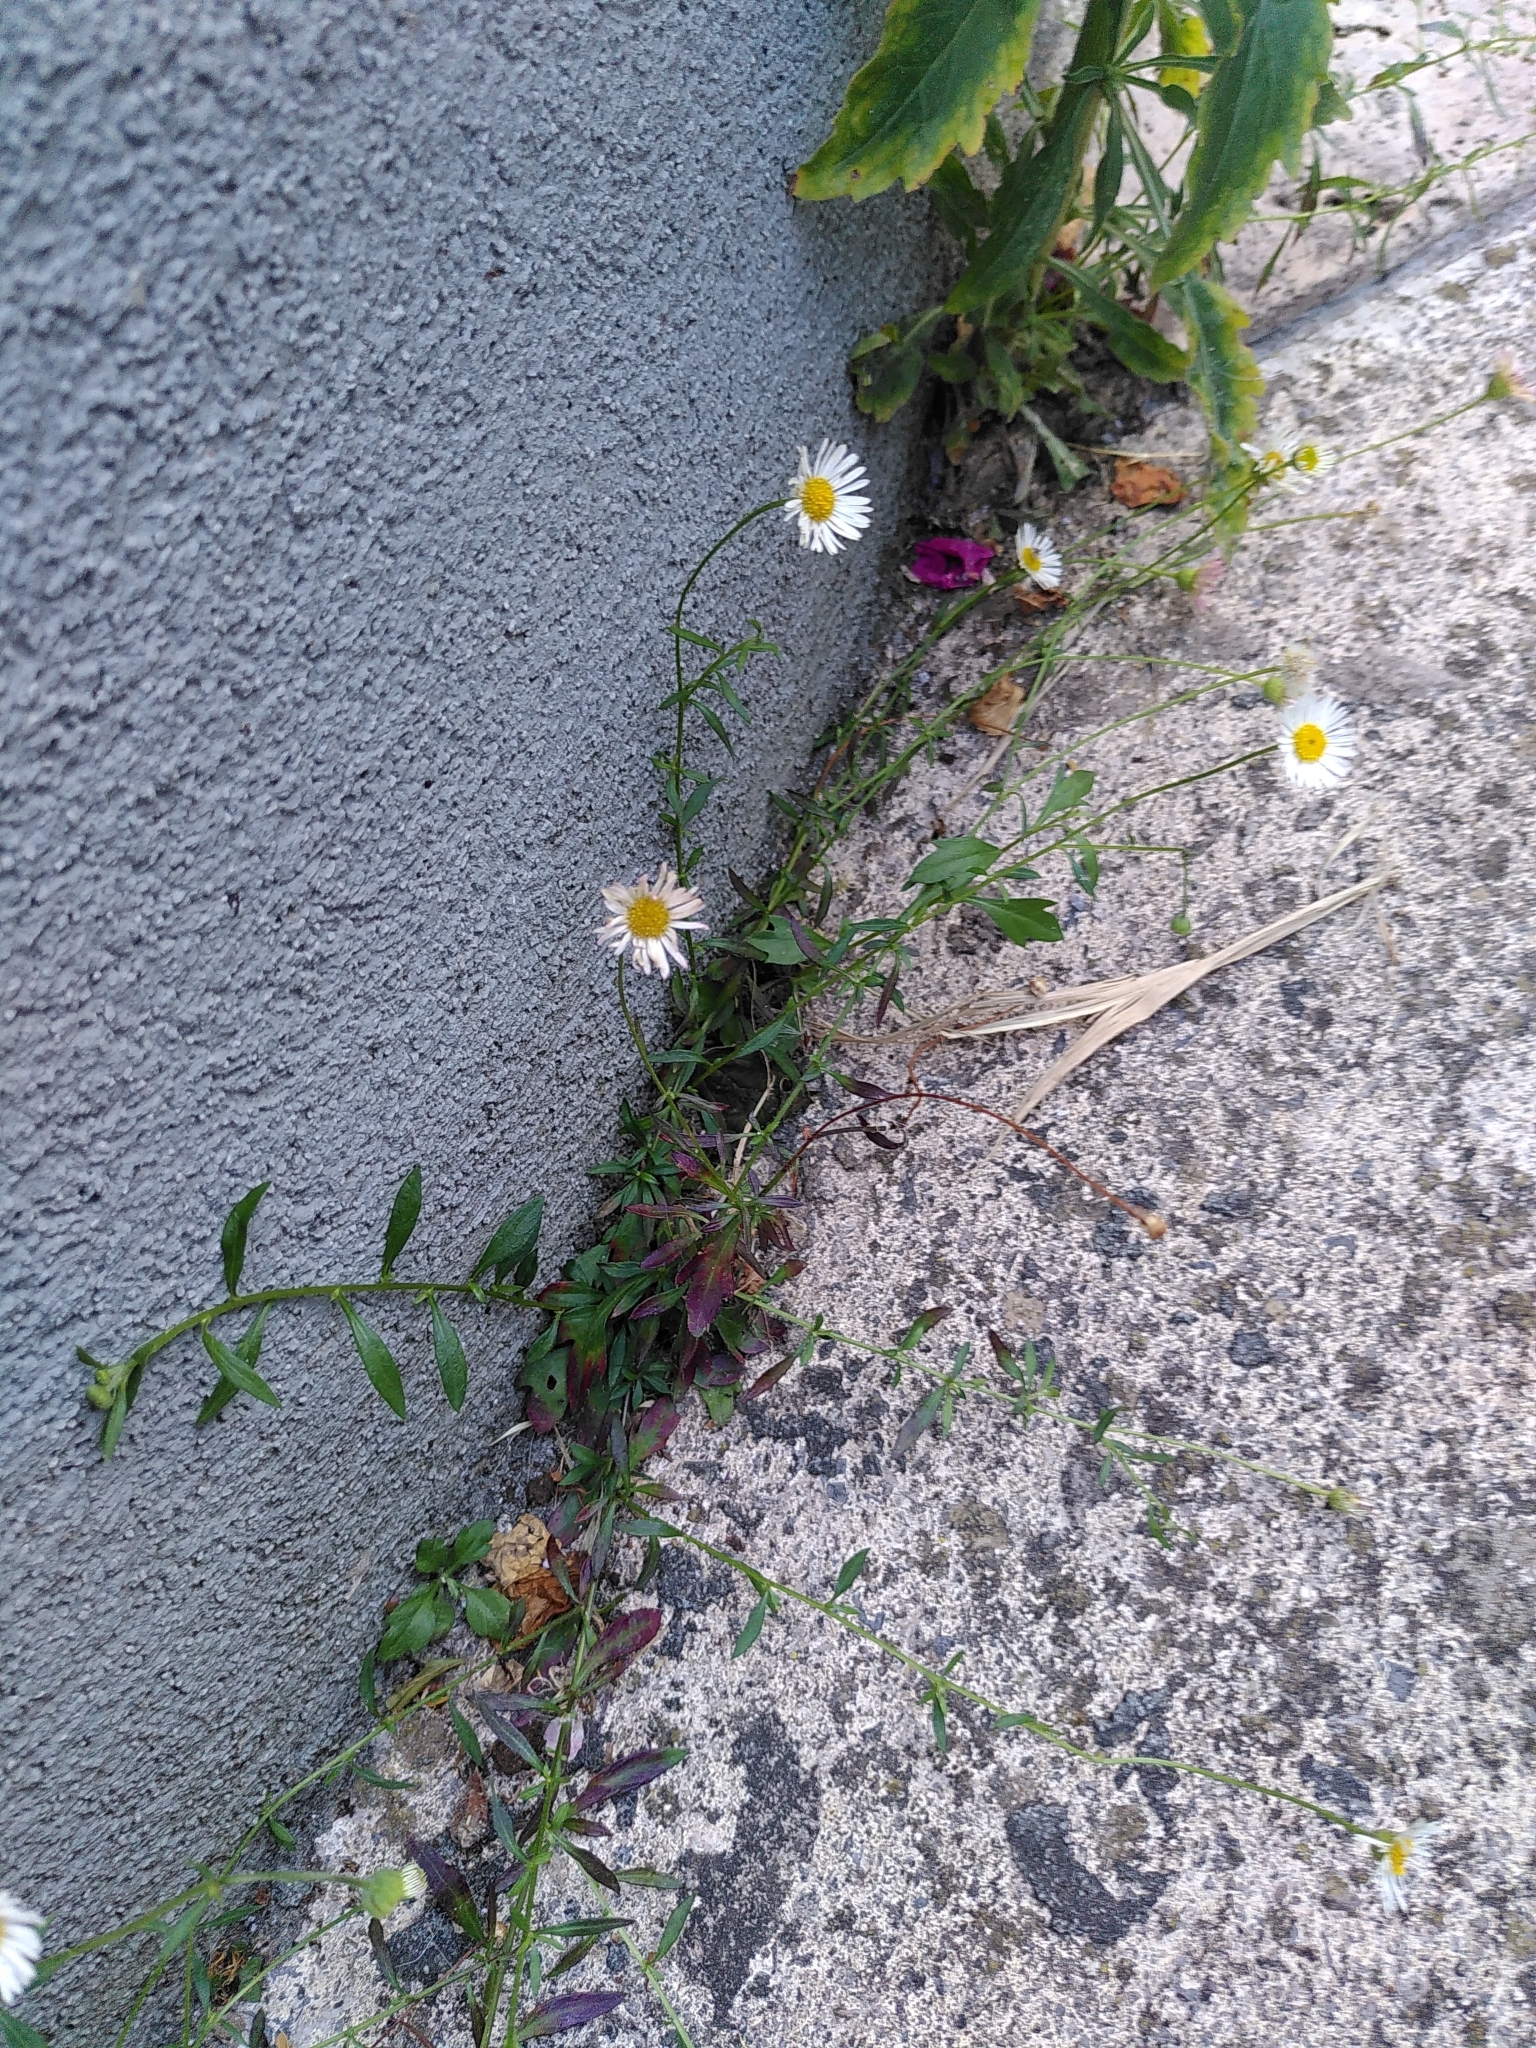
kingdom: Plantae
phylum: Tracheophyta
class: Magnoliopsida
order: Asterales
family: Asteraceae
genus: Erigeron
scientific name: Erigeron karvinskianus
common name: Mexican fleabane
